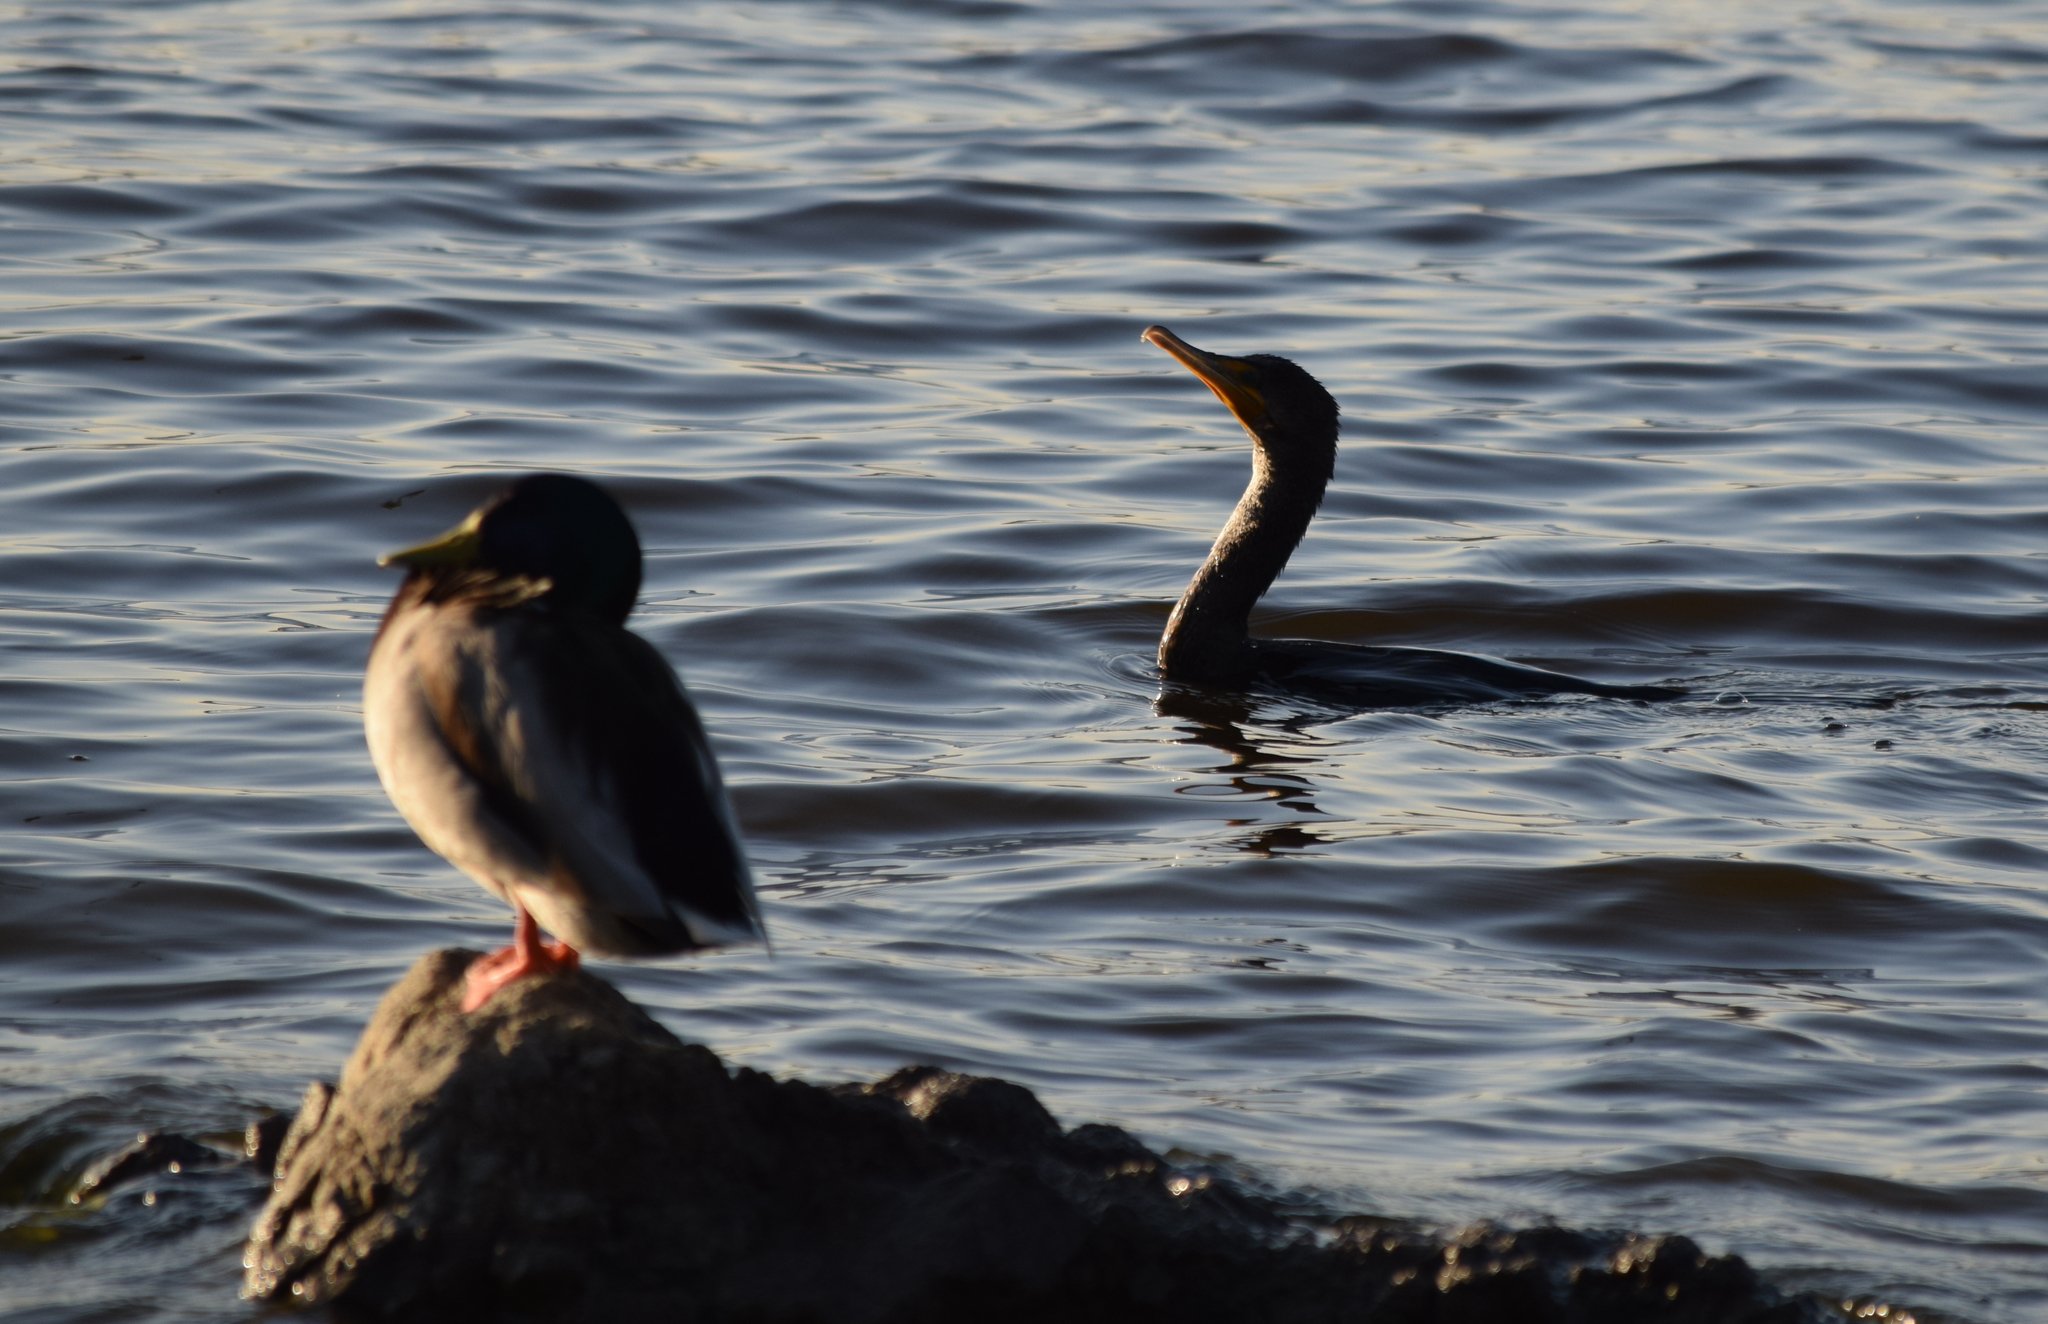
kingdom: Animalia
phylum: Chordata
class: Aves
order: Suliformes
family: Phalacrocoracidae
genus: Phalacrocorax
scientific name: Phalacrocorax auritus
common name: Double-crested cormorant
